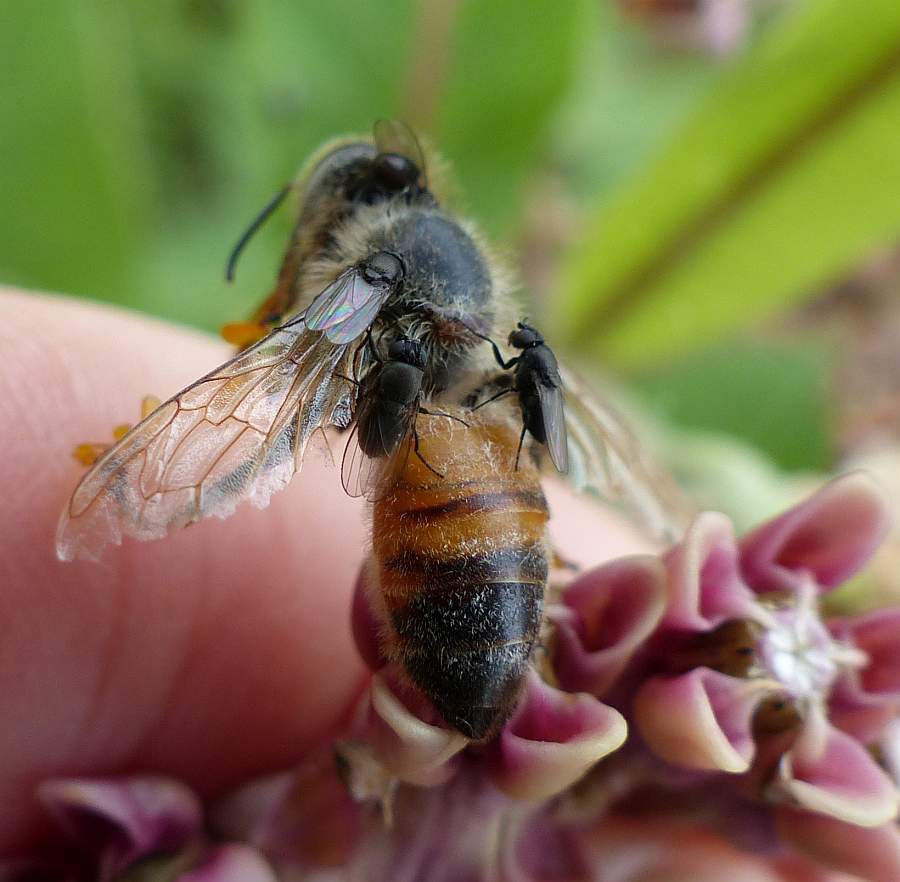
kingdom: Animalia
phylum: Arthropoda
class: Insecta
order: Hymenoptera
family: Apidae
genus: Apis
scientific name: Apis mellifera
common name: Honey bee
